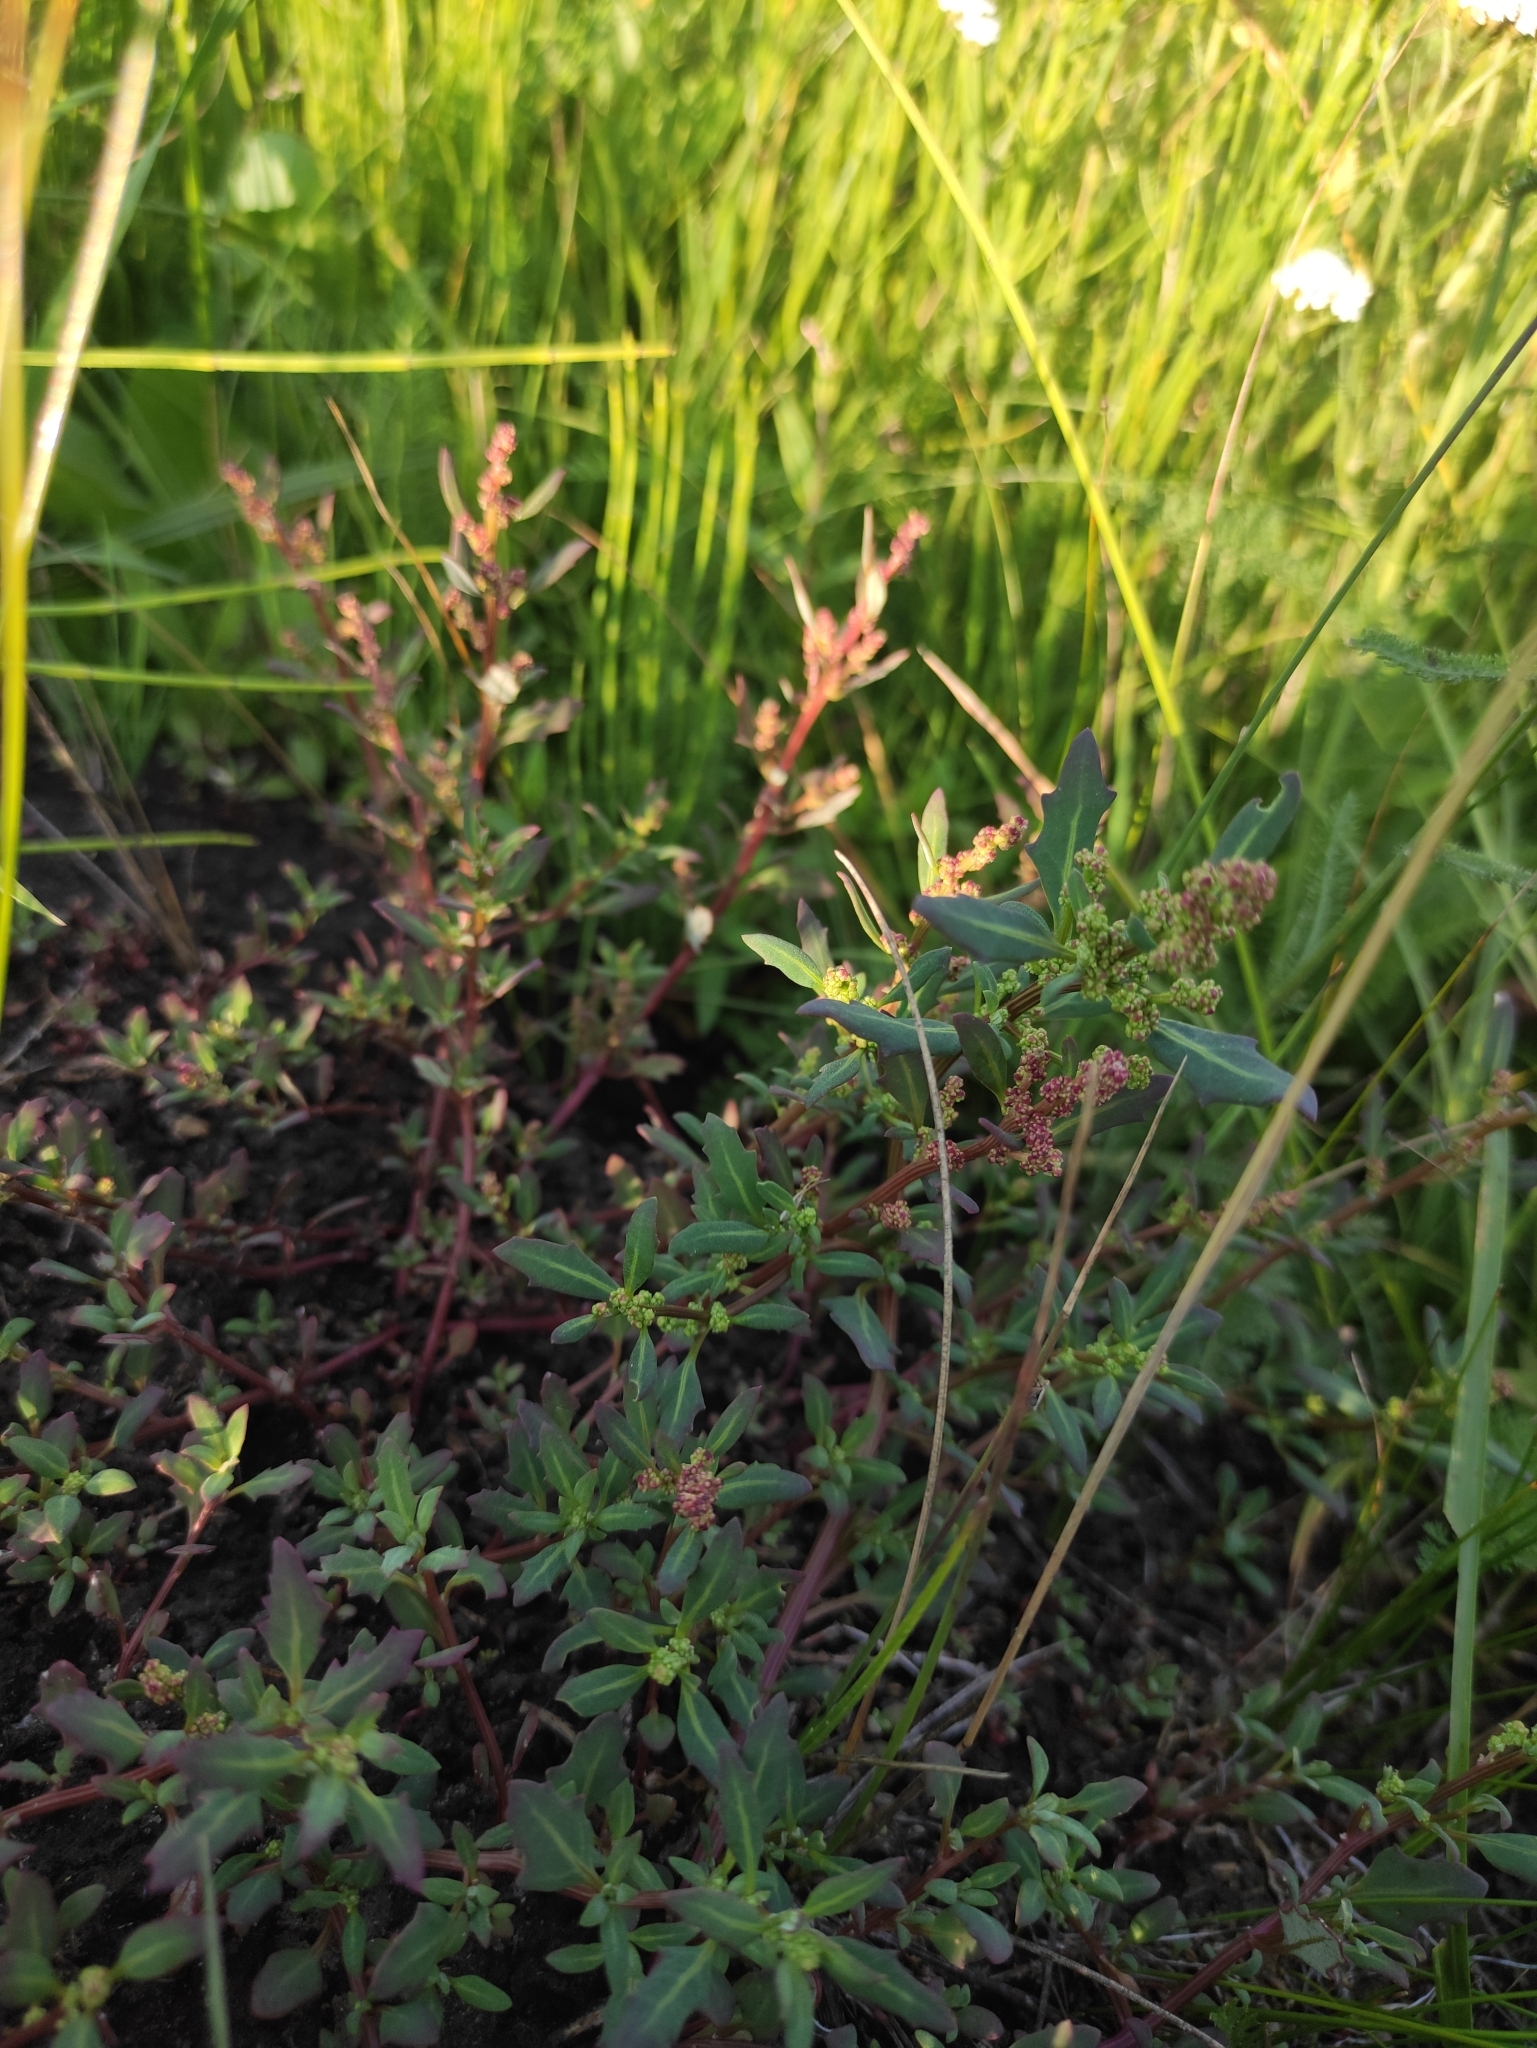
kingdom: Plantae
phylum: Tracheophyta
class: Magnoliopsida
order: Caryophyllales
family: Amaranthaceae
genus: Oxybasis
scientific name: Oxybasis glauca
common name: Glaucous goosefoot
